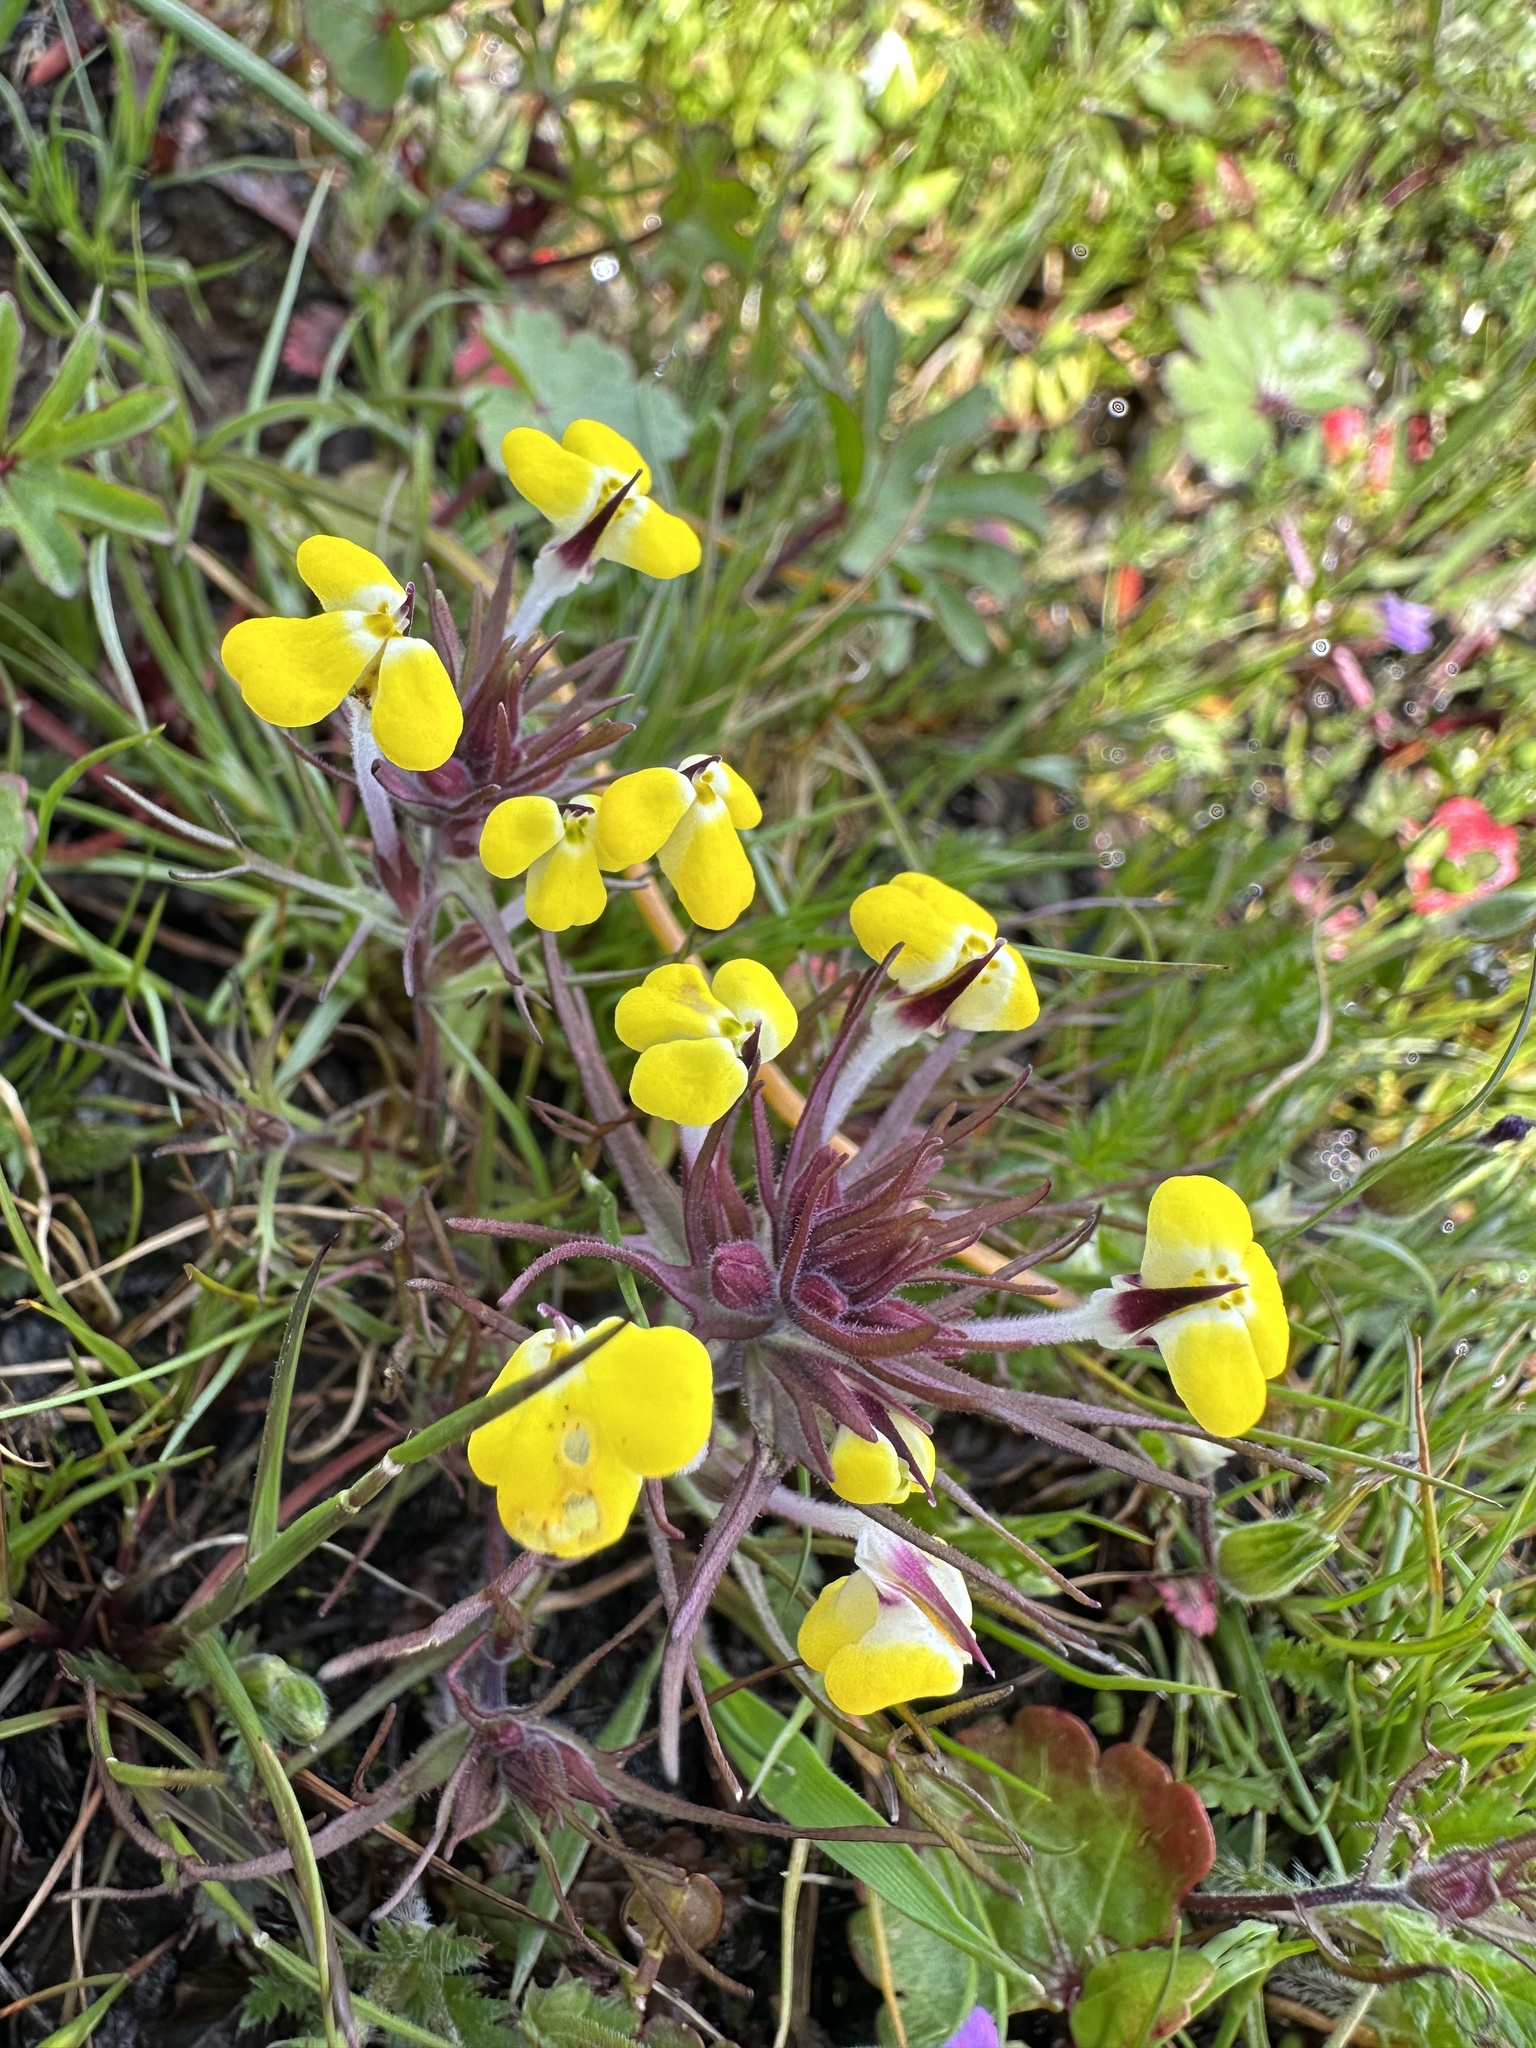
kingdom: Plantae
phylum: Tracheophyta
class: Magnoliopsida
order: Lamiales
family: Orobanchaceae
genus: Triphysaria
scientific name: Triphysaria eriantha
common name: Johnny-tuck
